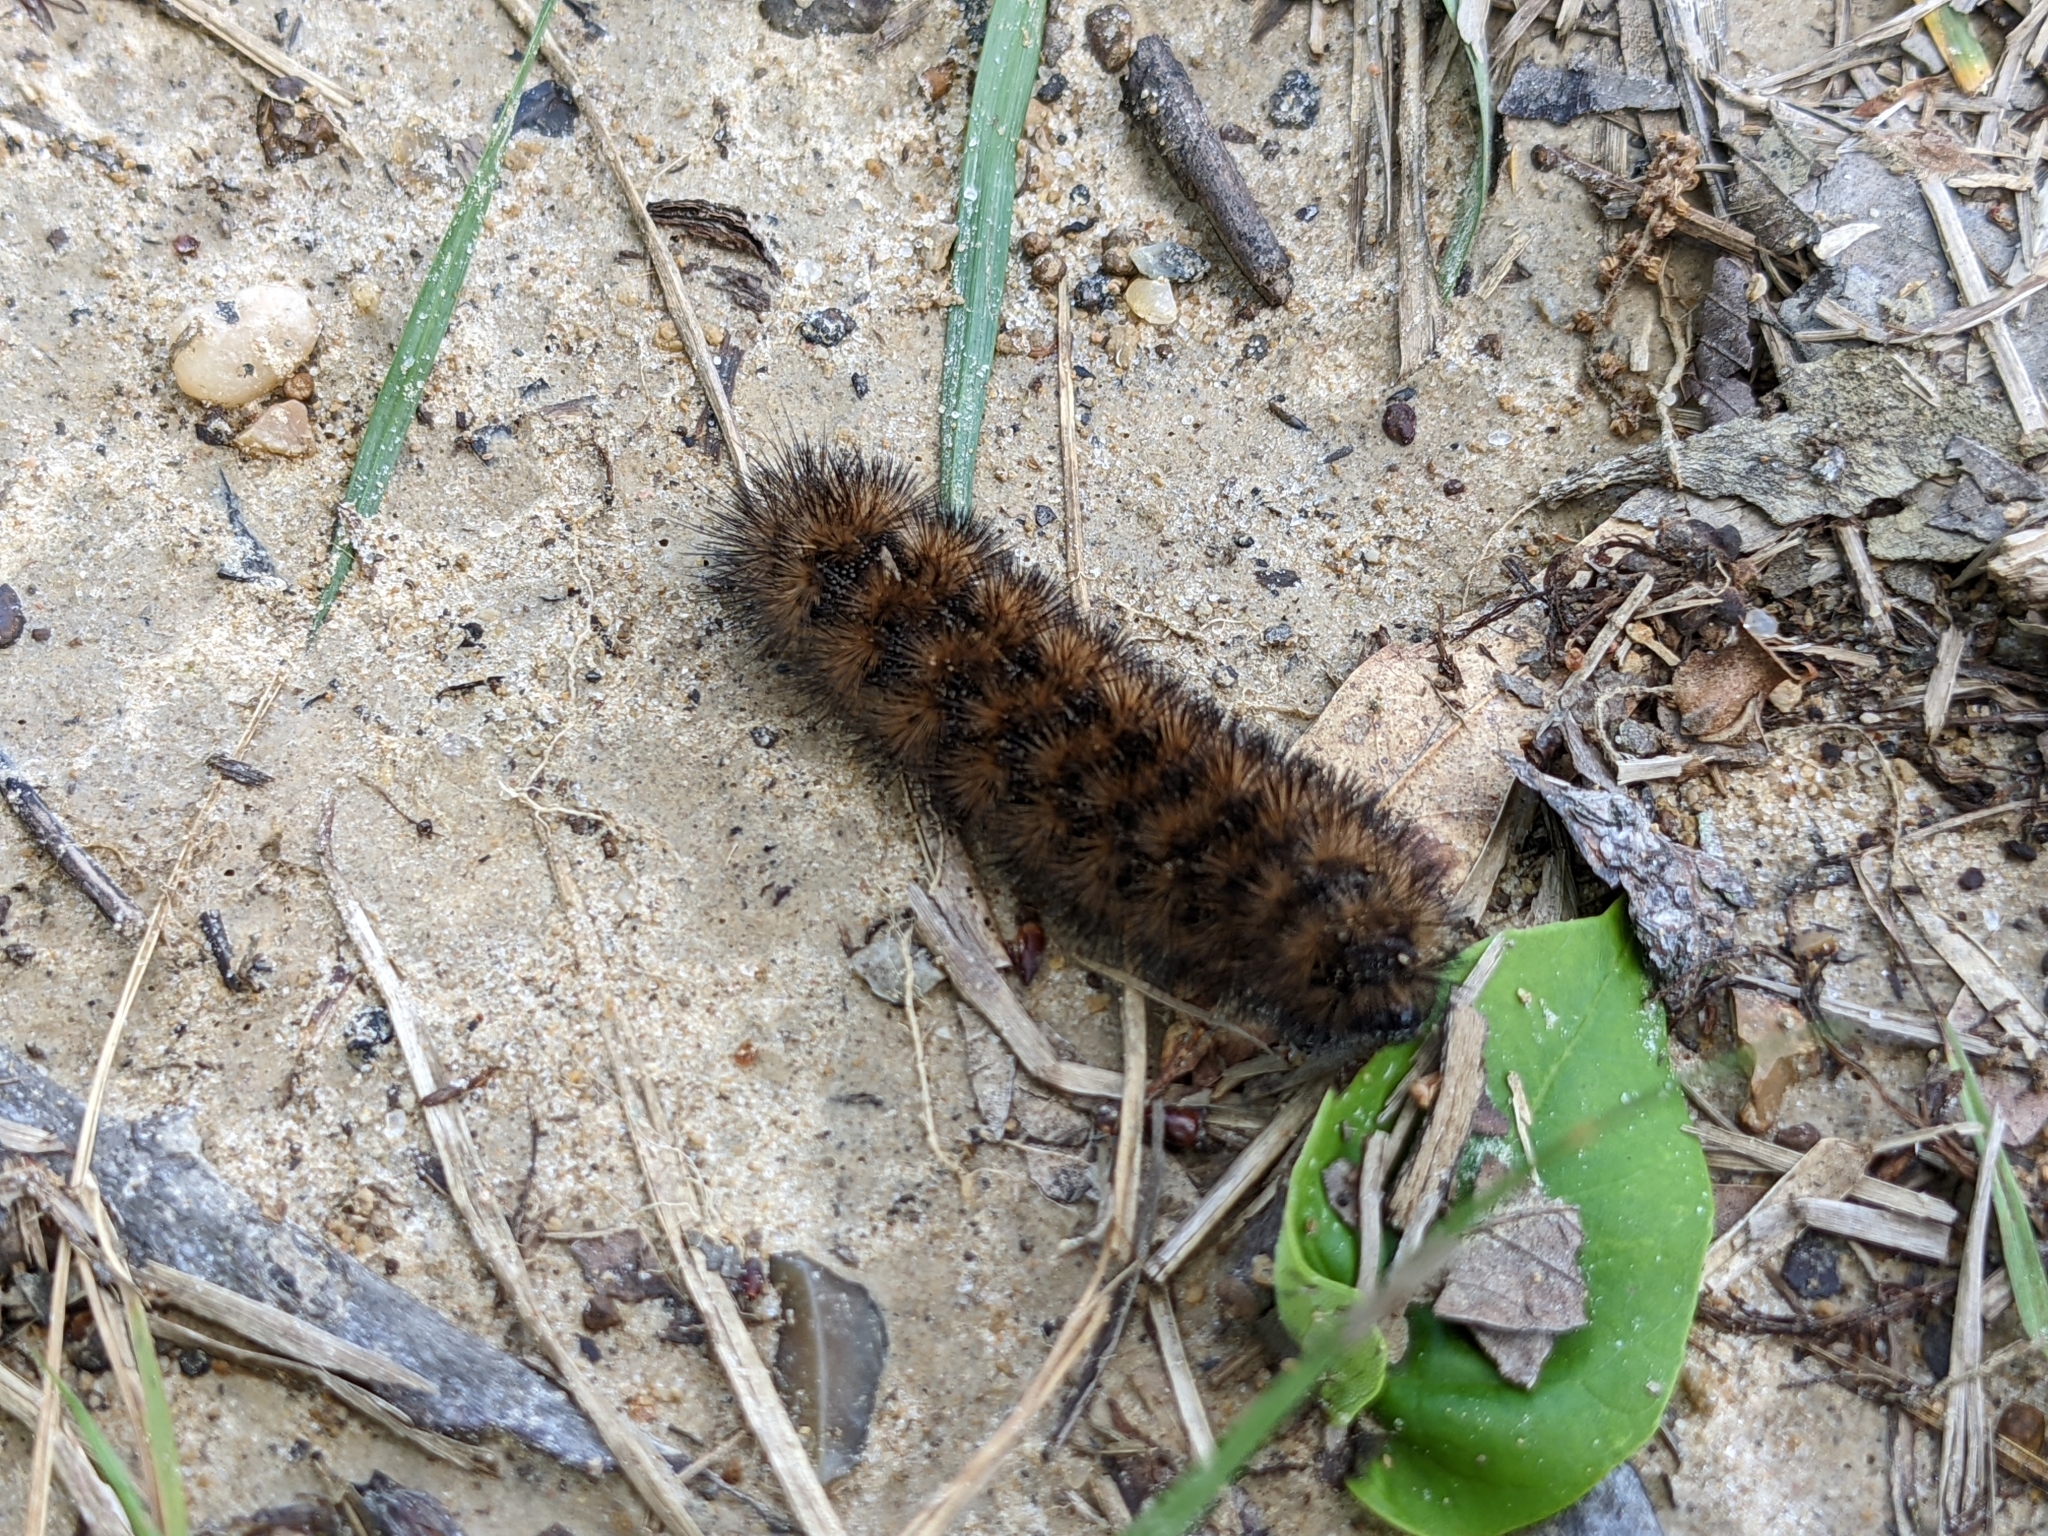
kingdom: Animalia
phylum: Arthropoda
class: Insecta
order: Lepidoptera
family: Erebidae
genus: Pyrrharctia
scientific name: Pyrrharctia isabella
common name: Isabella tiger moth
